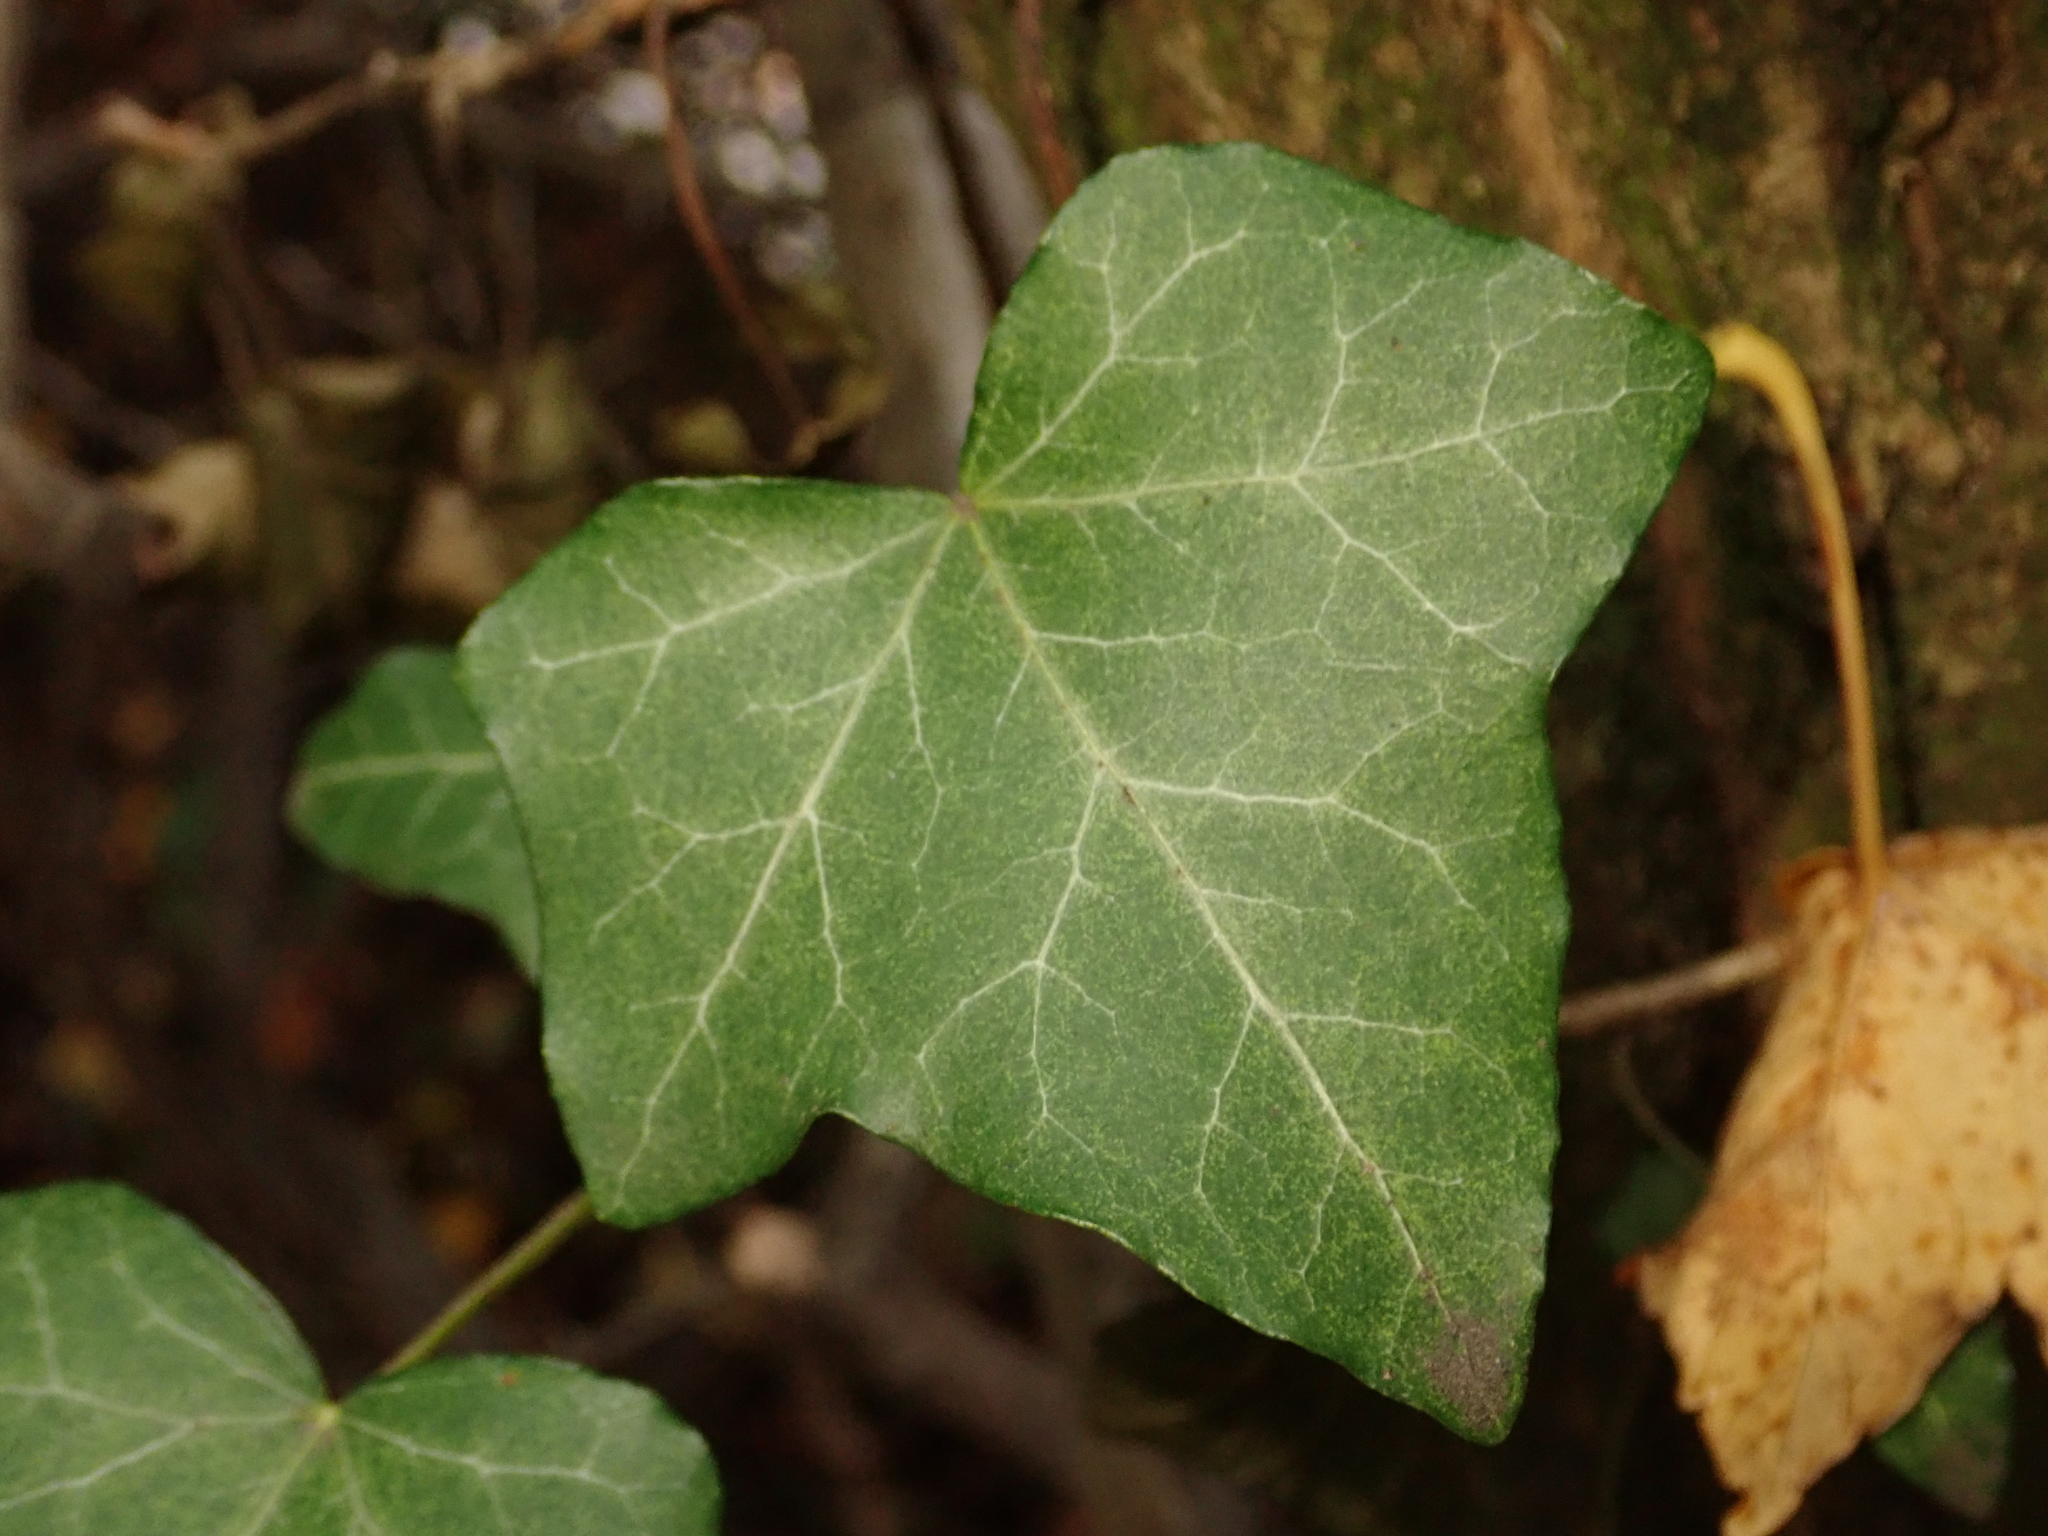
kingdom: Plantae
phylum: Tracheophyta
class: Magnoliopsida
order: Apiales
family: Araliaceae
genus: Hedera
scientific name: Hedera helix
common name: Ivy
